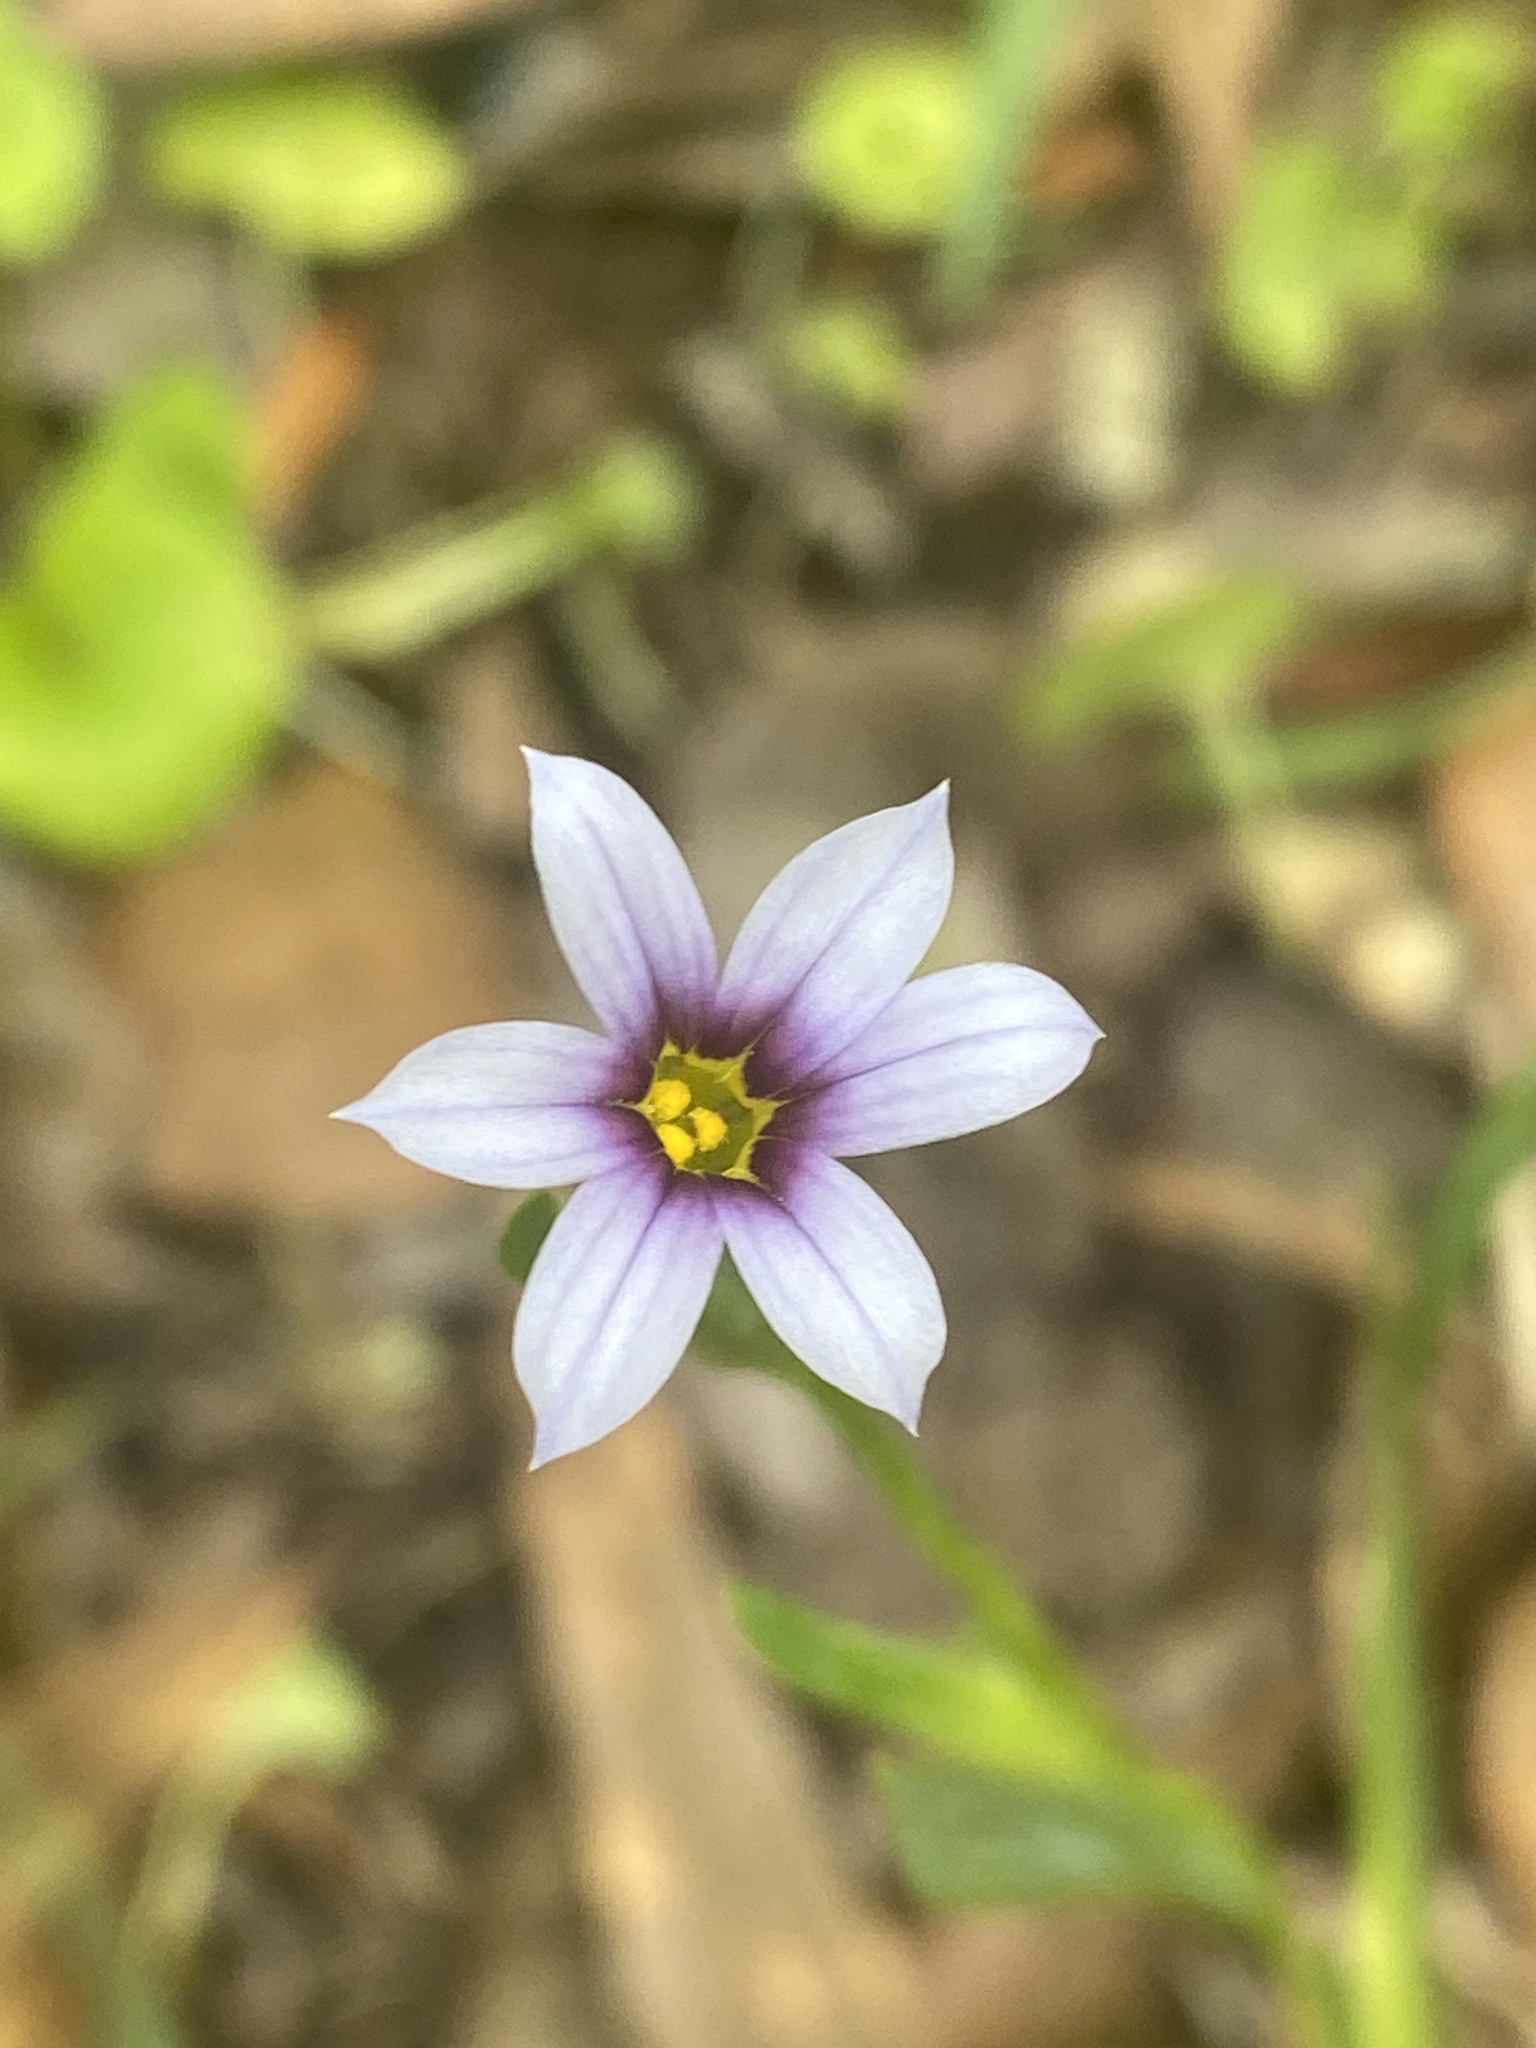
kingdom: Plantae
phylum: Tracheophyta
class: Liliopsida
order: Asparagales
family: Iridaceae
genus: Sisyrinchium
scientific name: Sisyrinchium micranthum
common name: Bermuda pigroot
